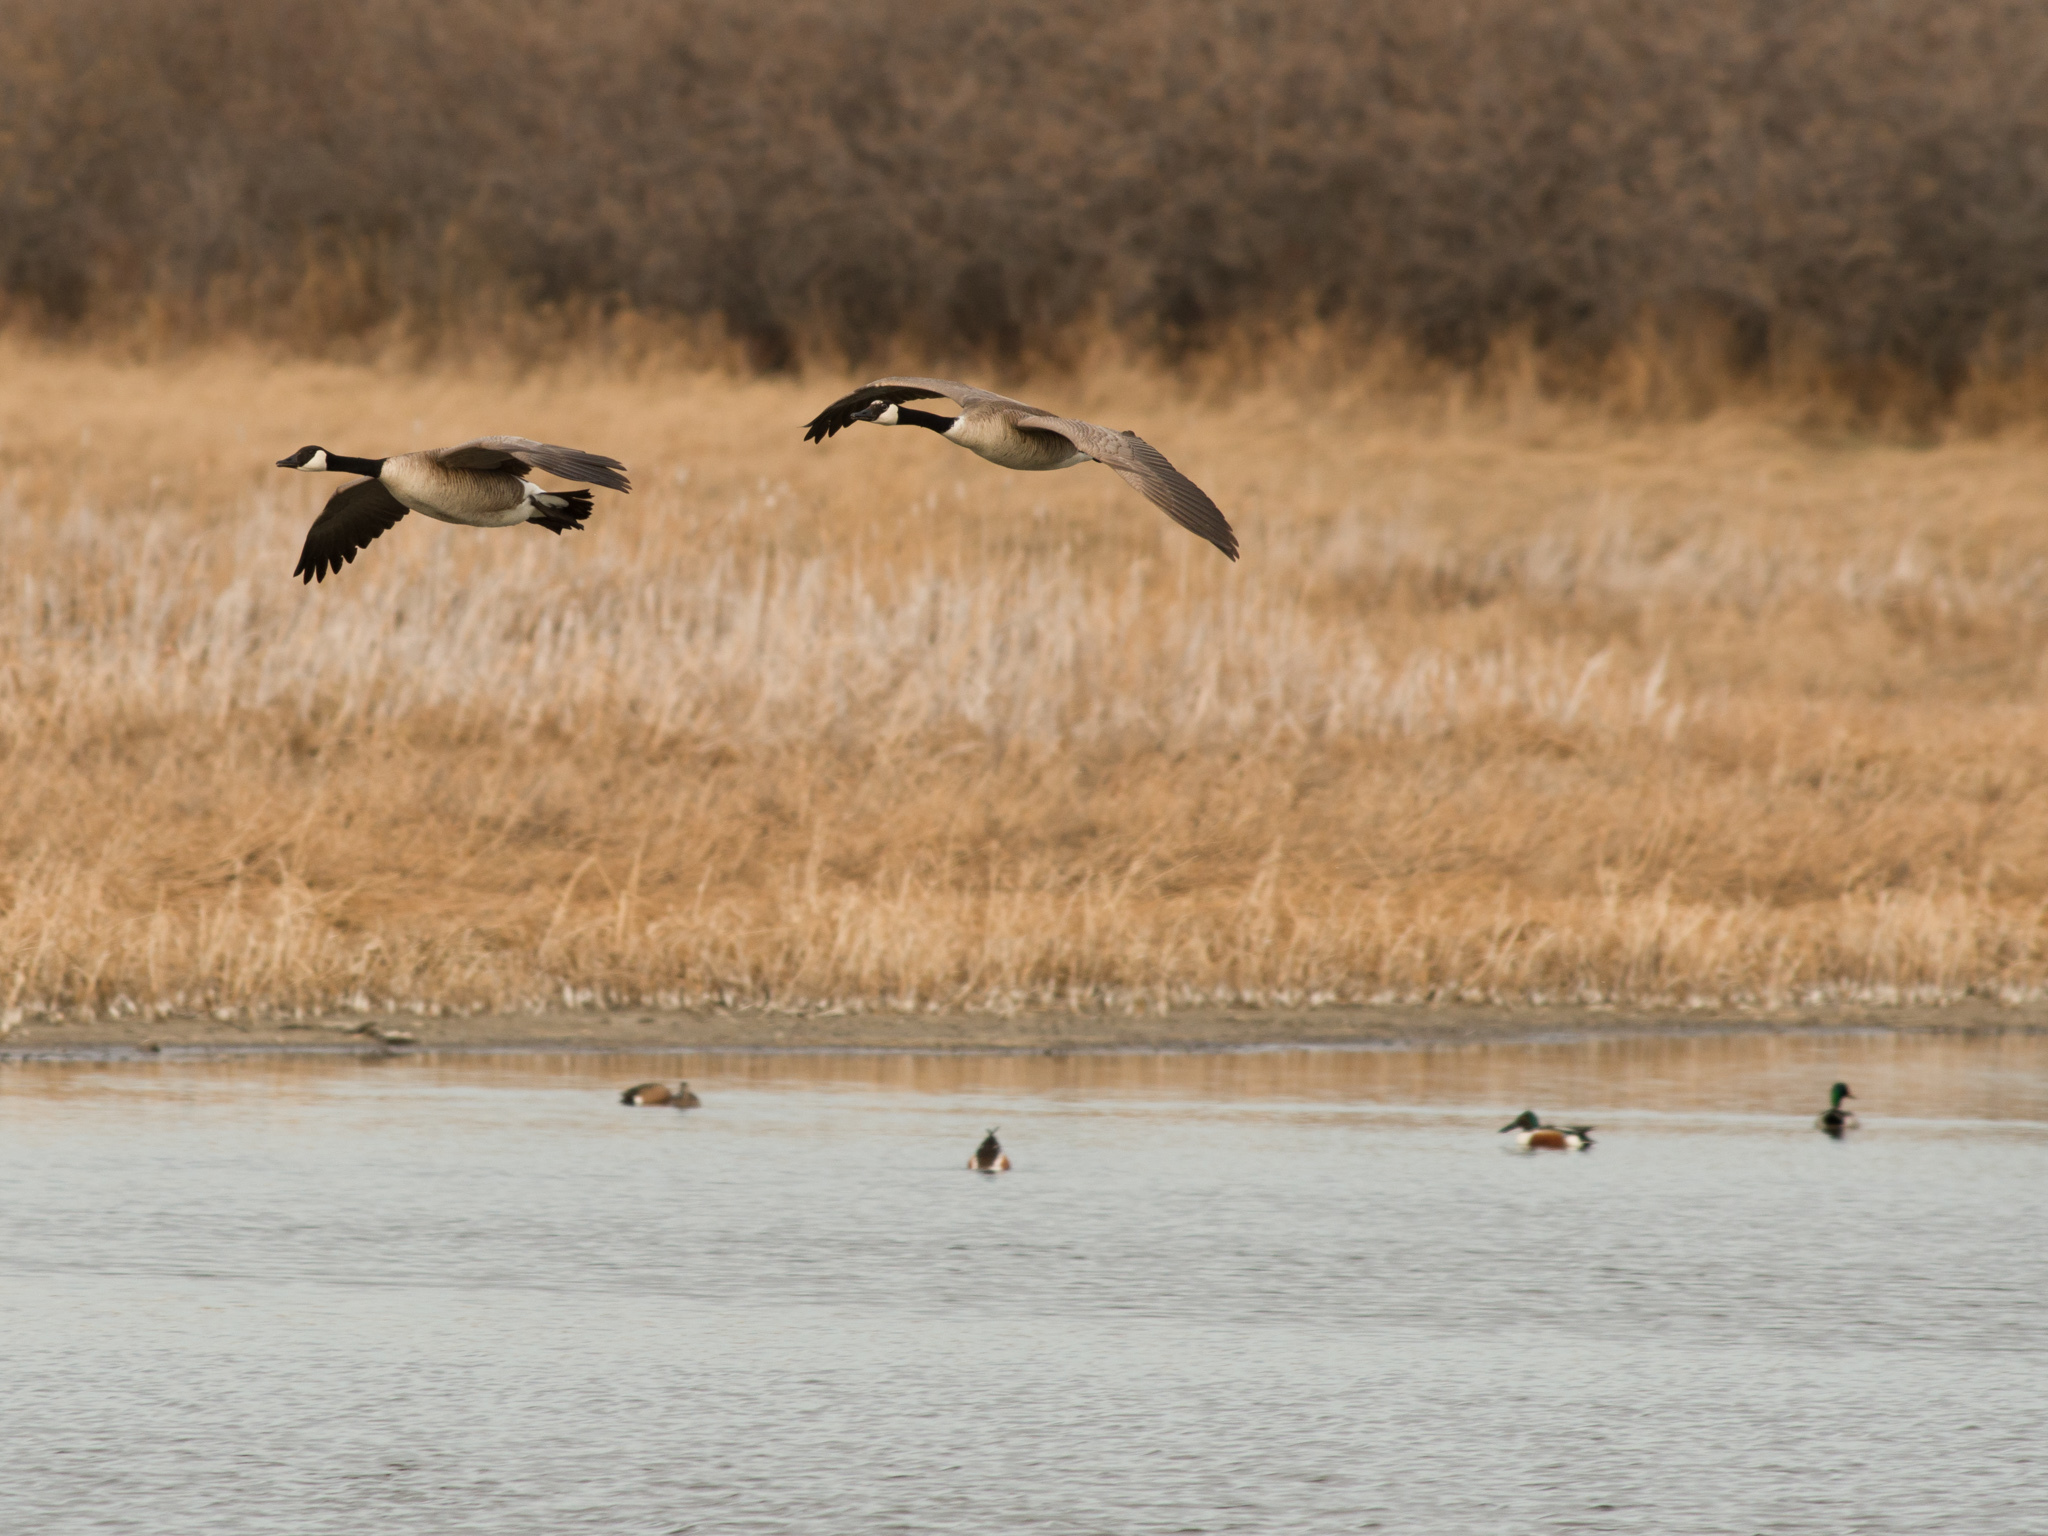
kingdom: Animalia
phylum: Chordata
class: Aves
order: Anseriformes
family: Anatidae
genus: Branta
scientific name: Branta canadensis
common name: Canada goose
